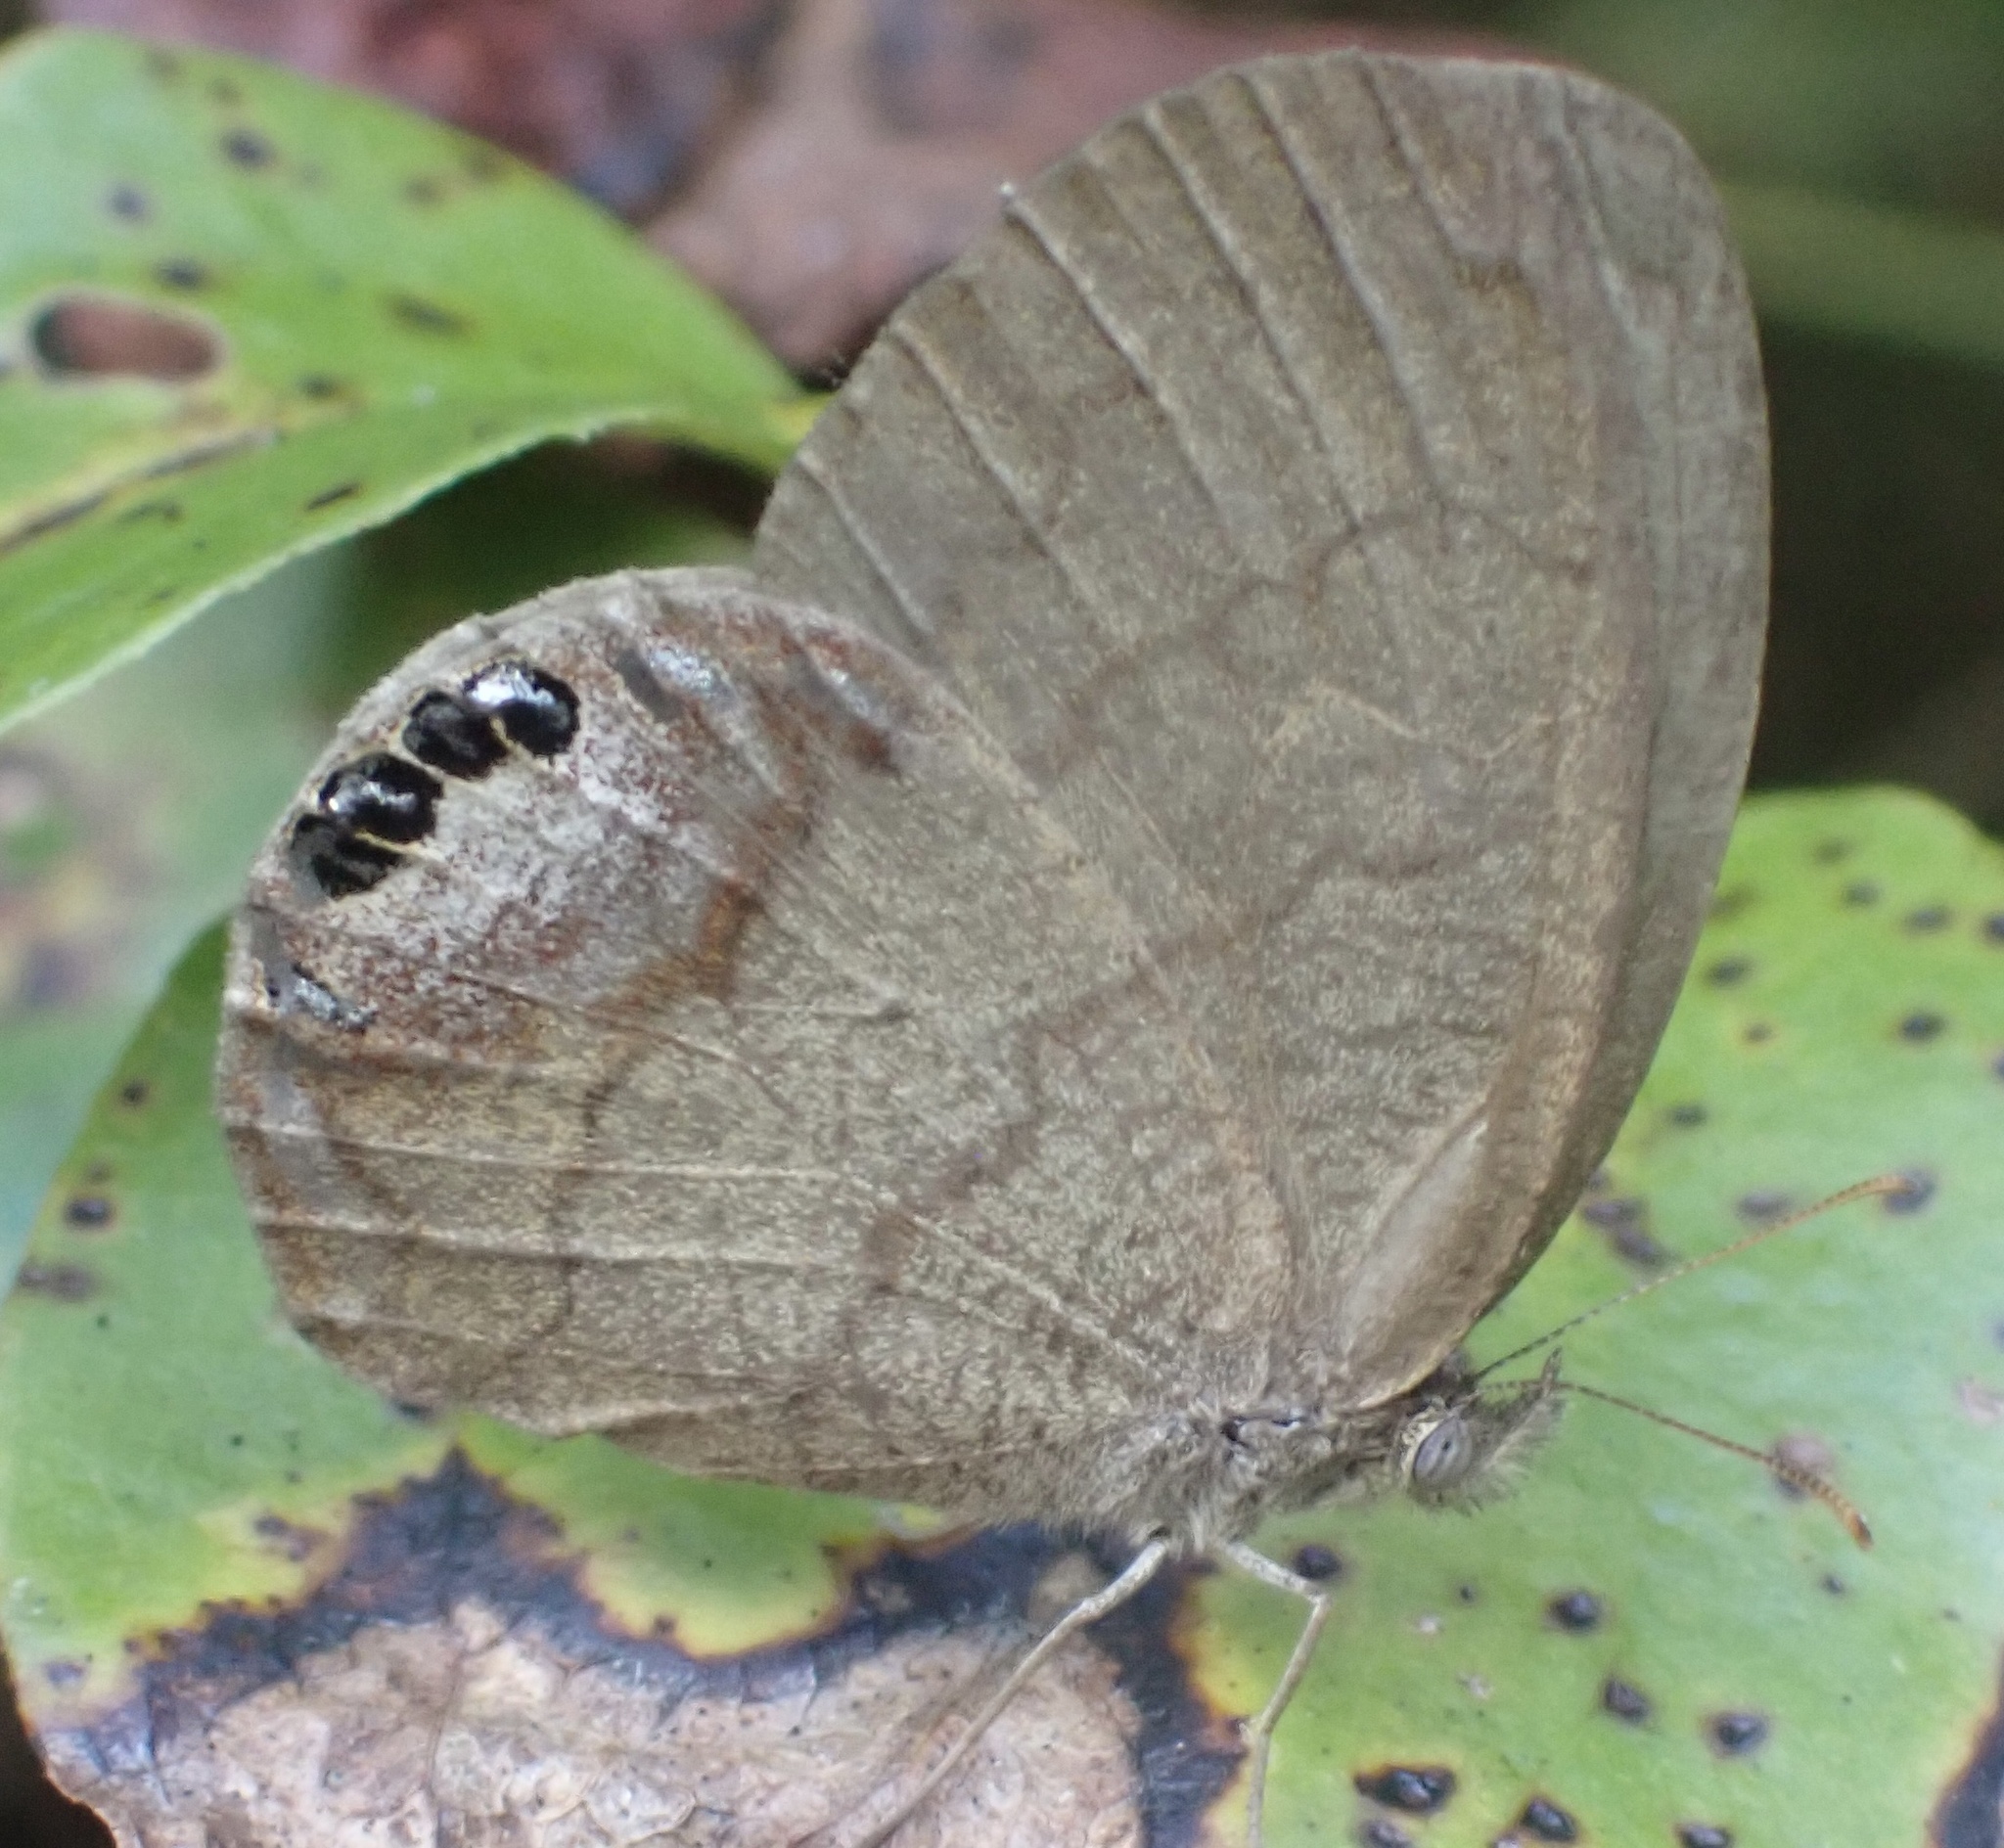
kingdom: Animalia
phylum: Arthropoda
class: Insecta
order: Lepidoptera
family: Nymphalidae
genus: Euptychia
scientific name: Euptychia cornelius
